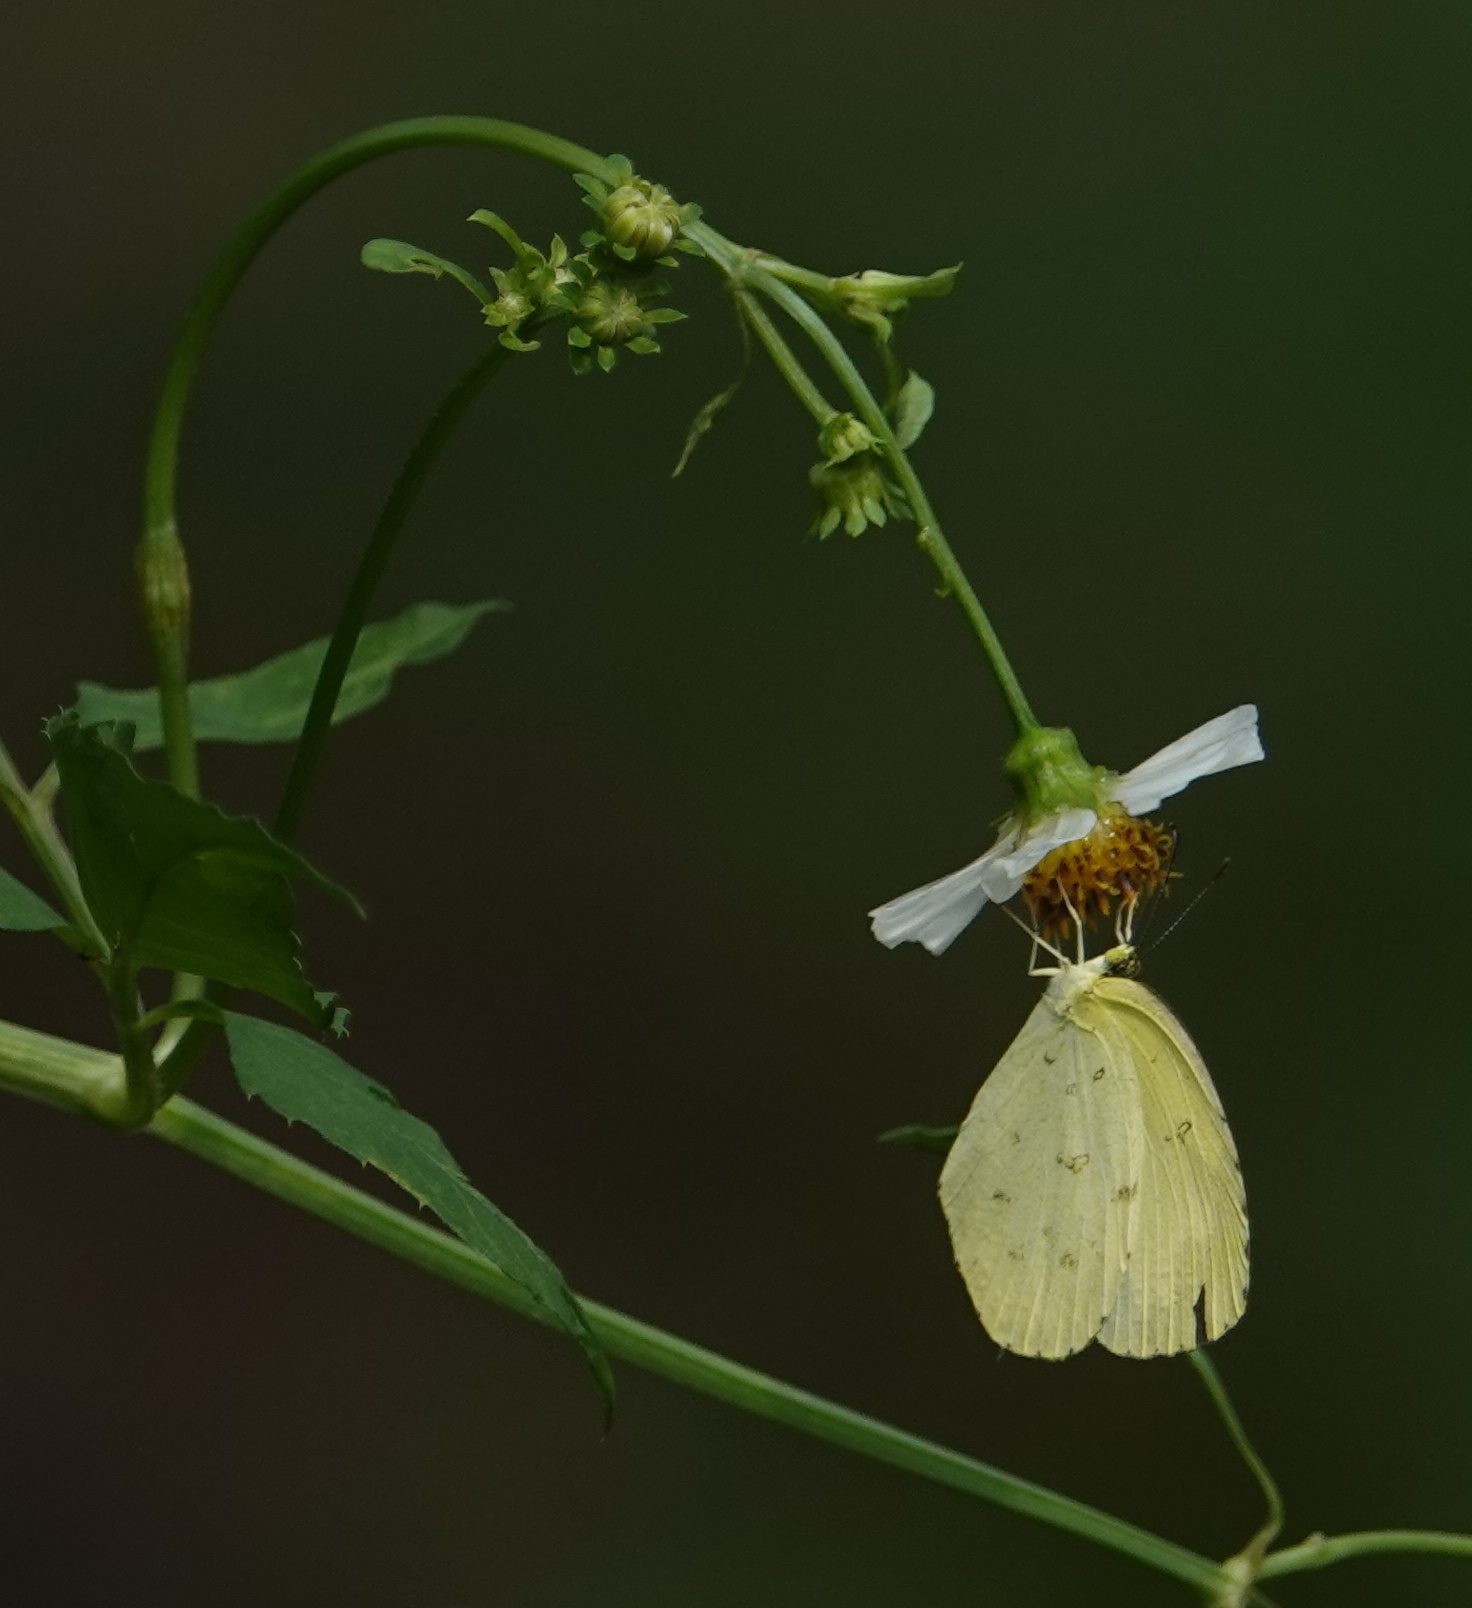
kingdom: Animalia
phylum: Arthropoda
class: Insecta
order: Lepidoptera
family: Pieridae
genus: Eurema
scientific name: Eurema hecabe
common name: Pale grass yellow
